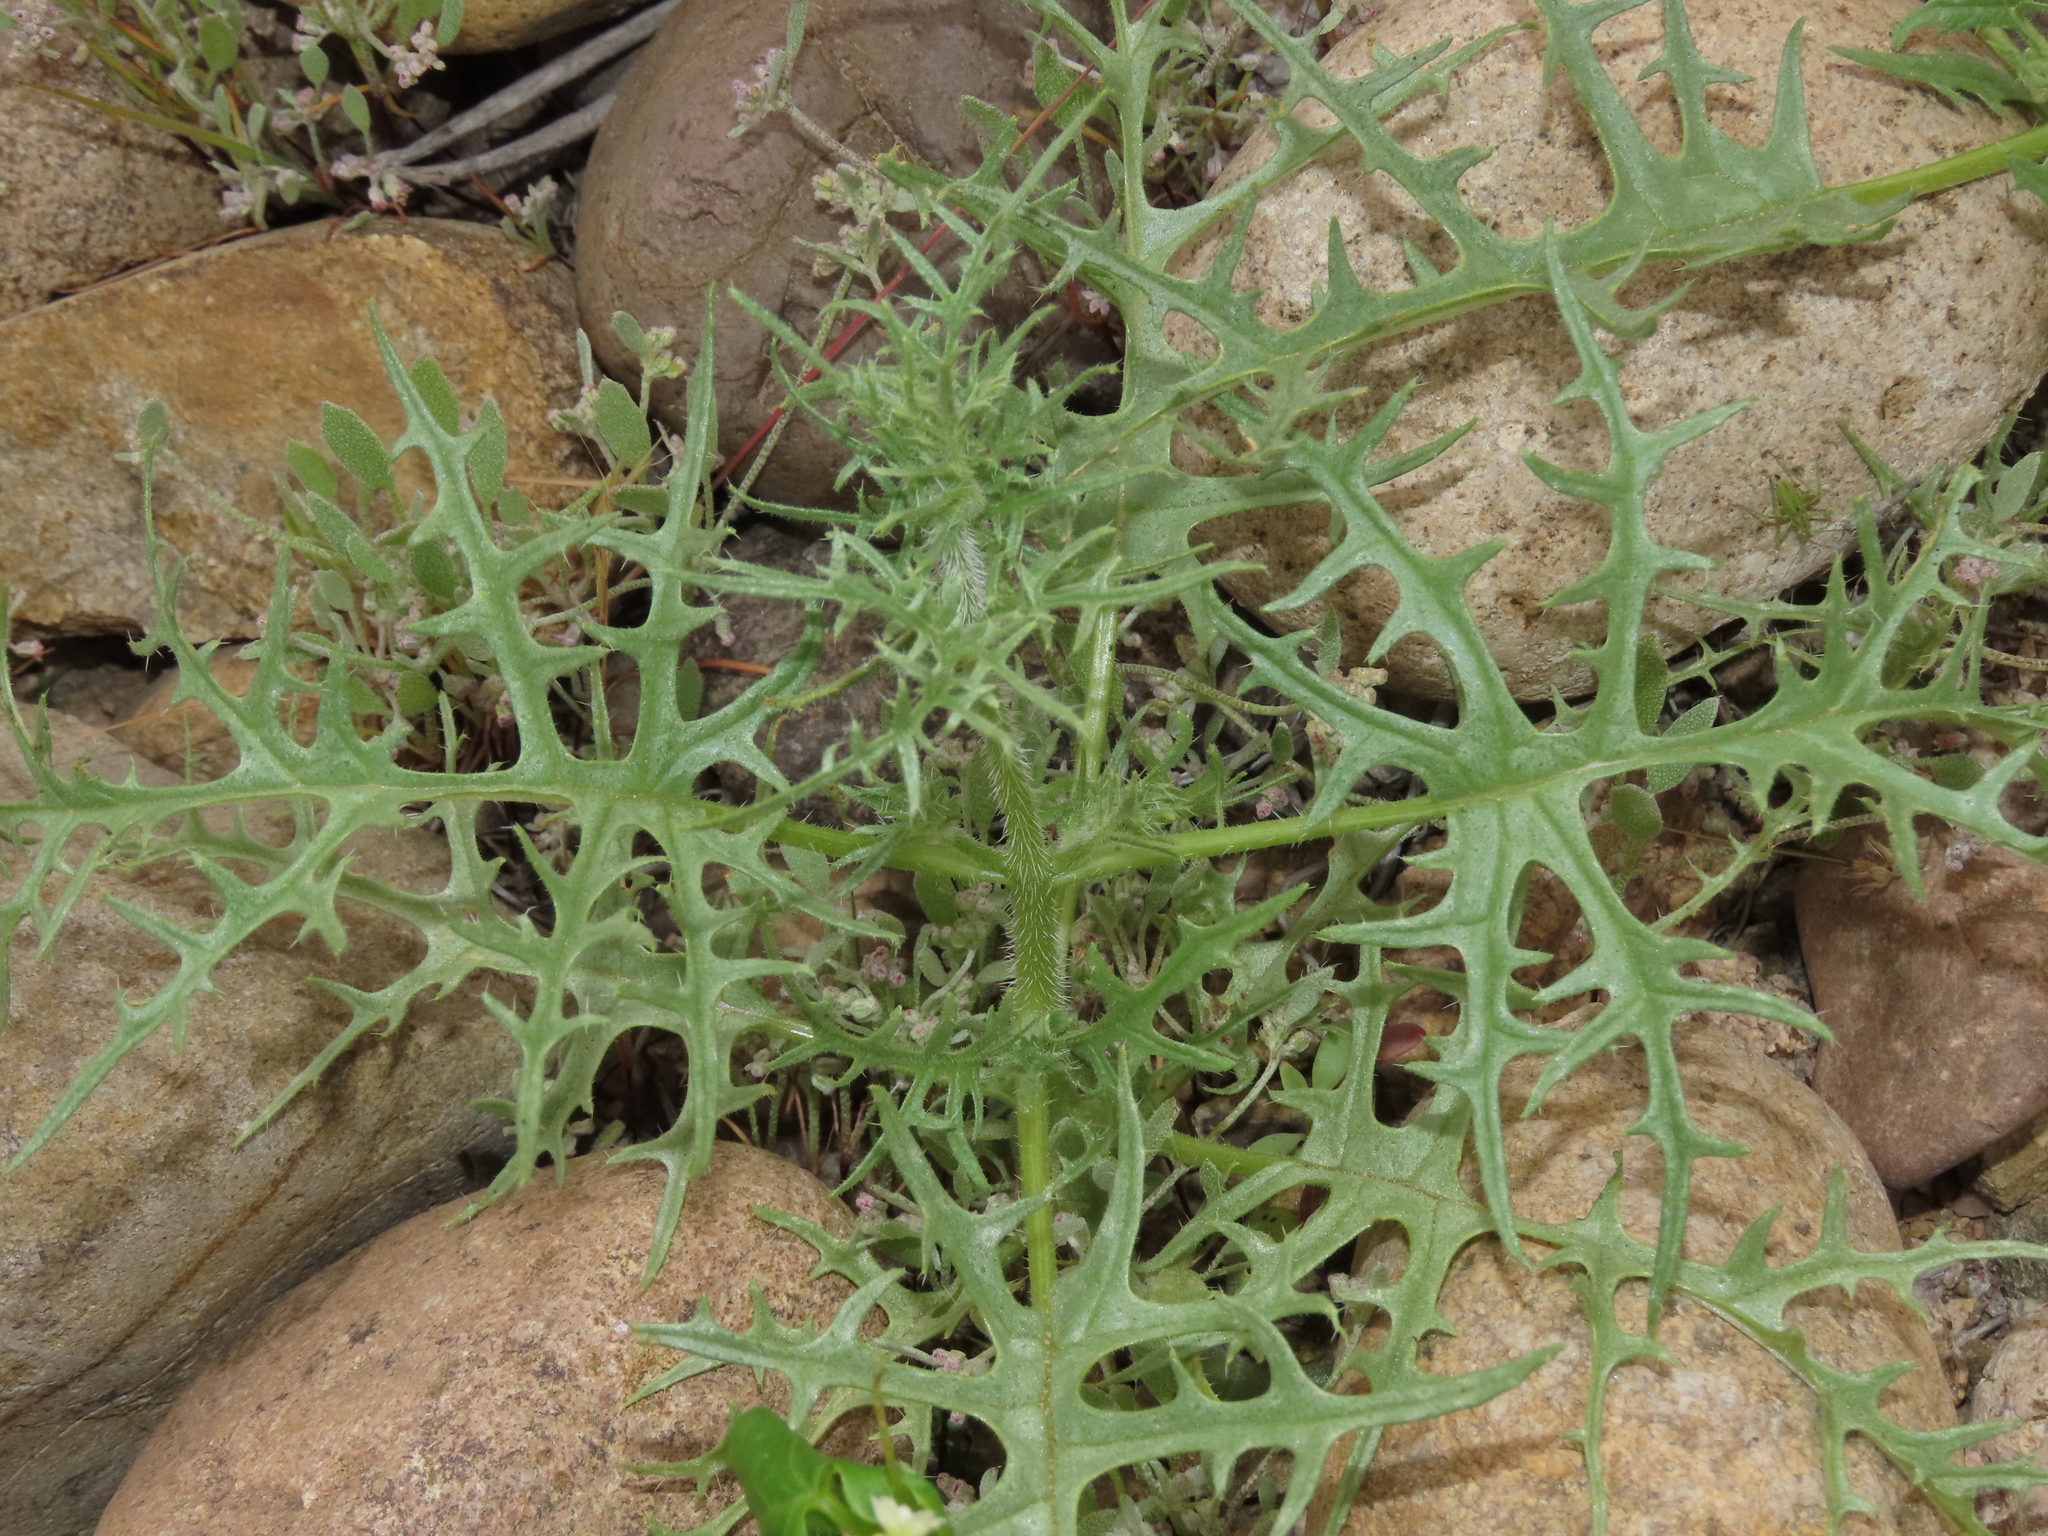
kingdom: Plantae
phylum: Tracheophyta
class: Magnoliopsida
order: Cornales
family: Loasaceae
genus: Loasa
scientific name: Loasa illapelina
